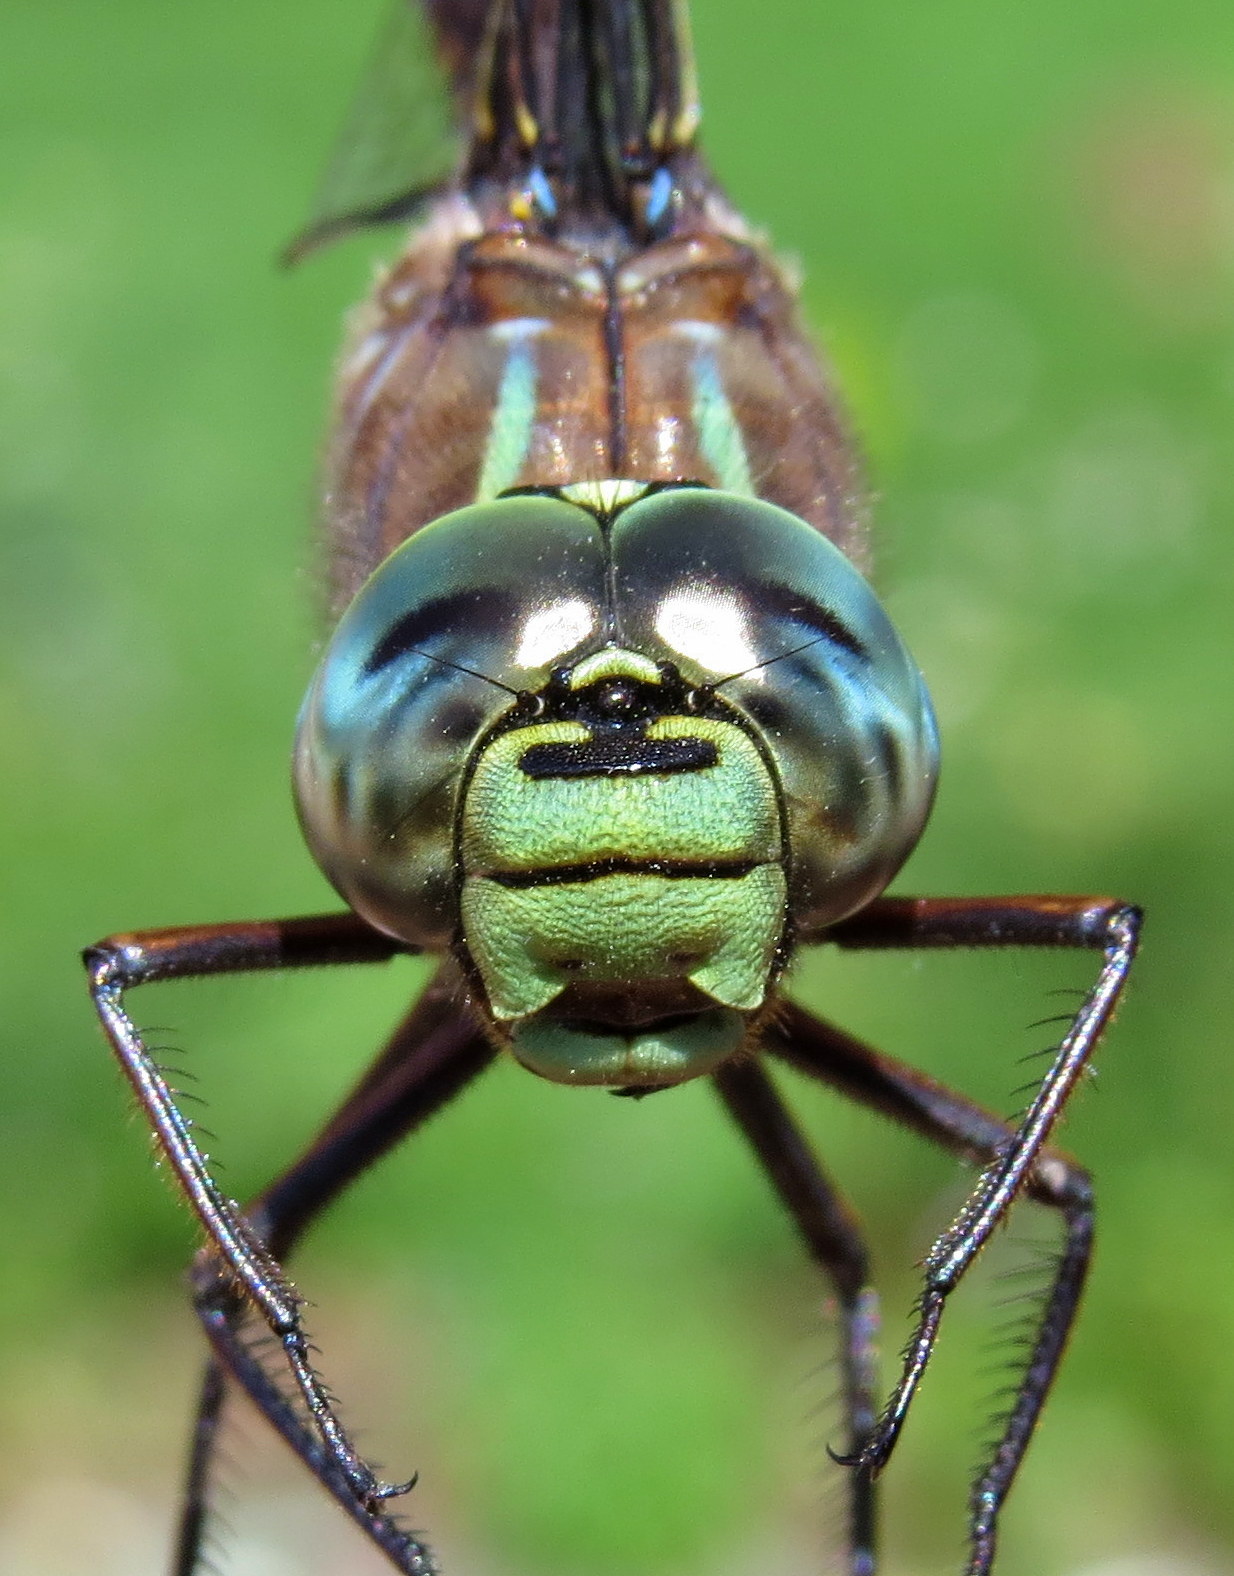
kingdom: Animalia
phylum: Arthropoda
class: Insecta
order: Odonata
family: Aeshnidae
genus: Aeshna
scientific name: Aeshna eremita
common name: Lake darner
